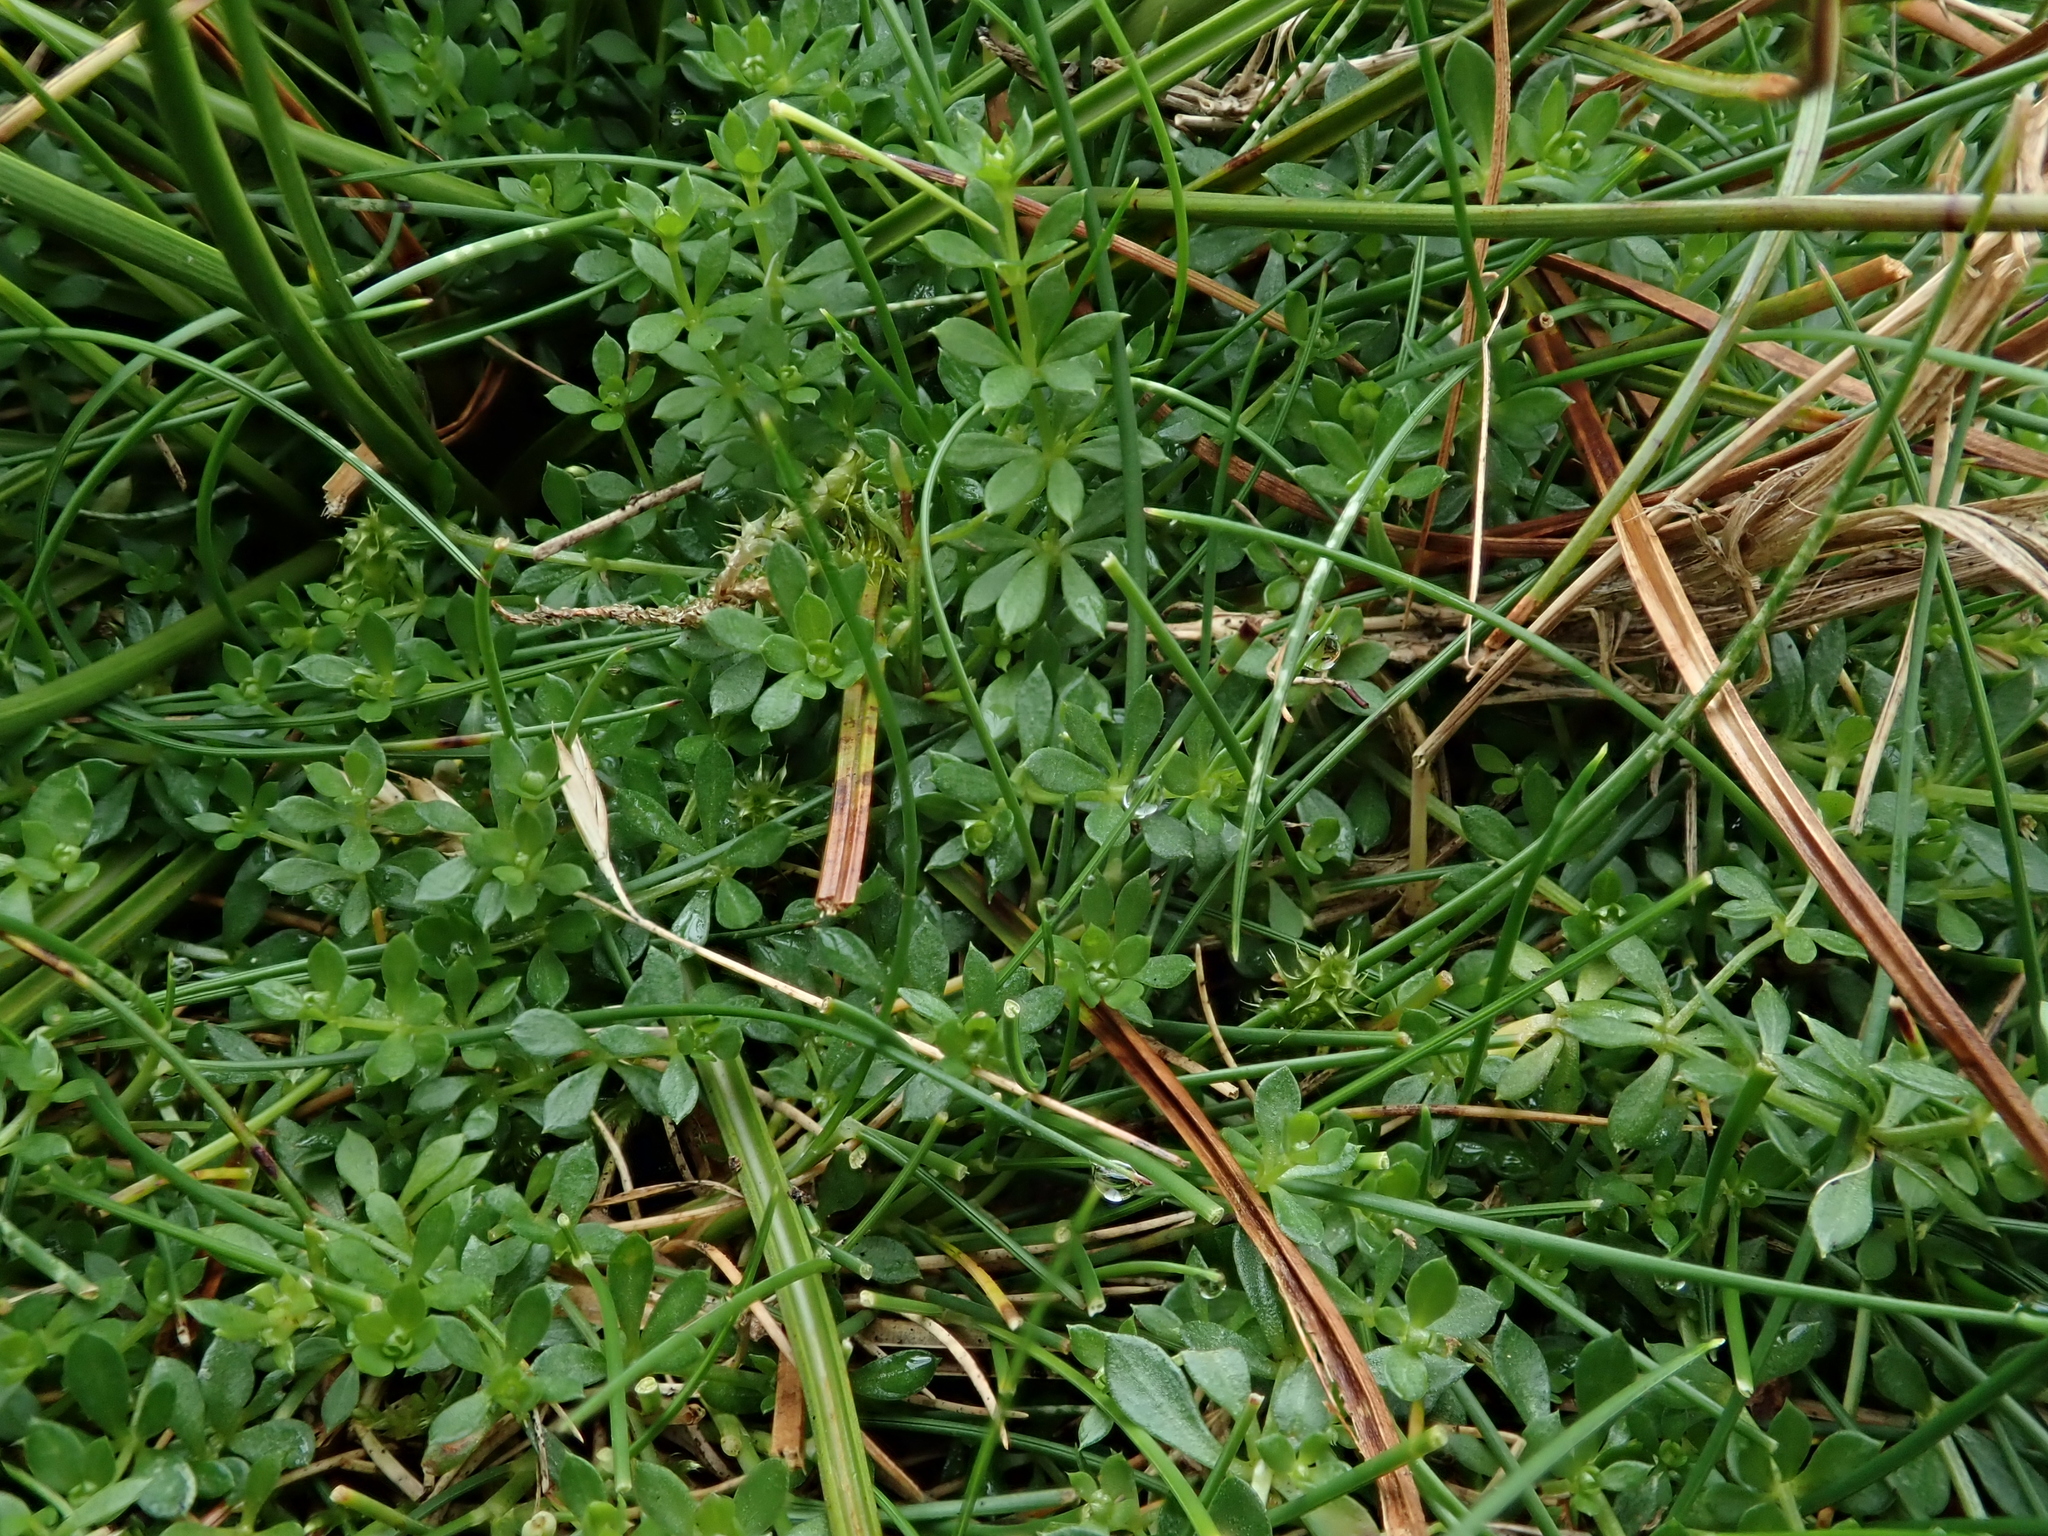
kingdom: Plantae
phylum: Tracheophyta
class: Magnoliopsida
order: Gentianales
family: Rubiaceae
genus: Galium
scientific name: Galium saxatile
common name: Heath bedstraw
